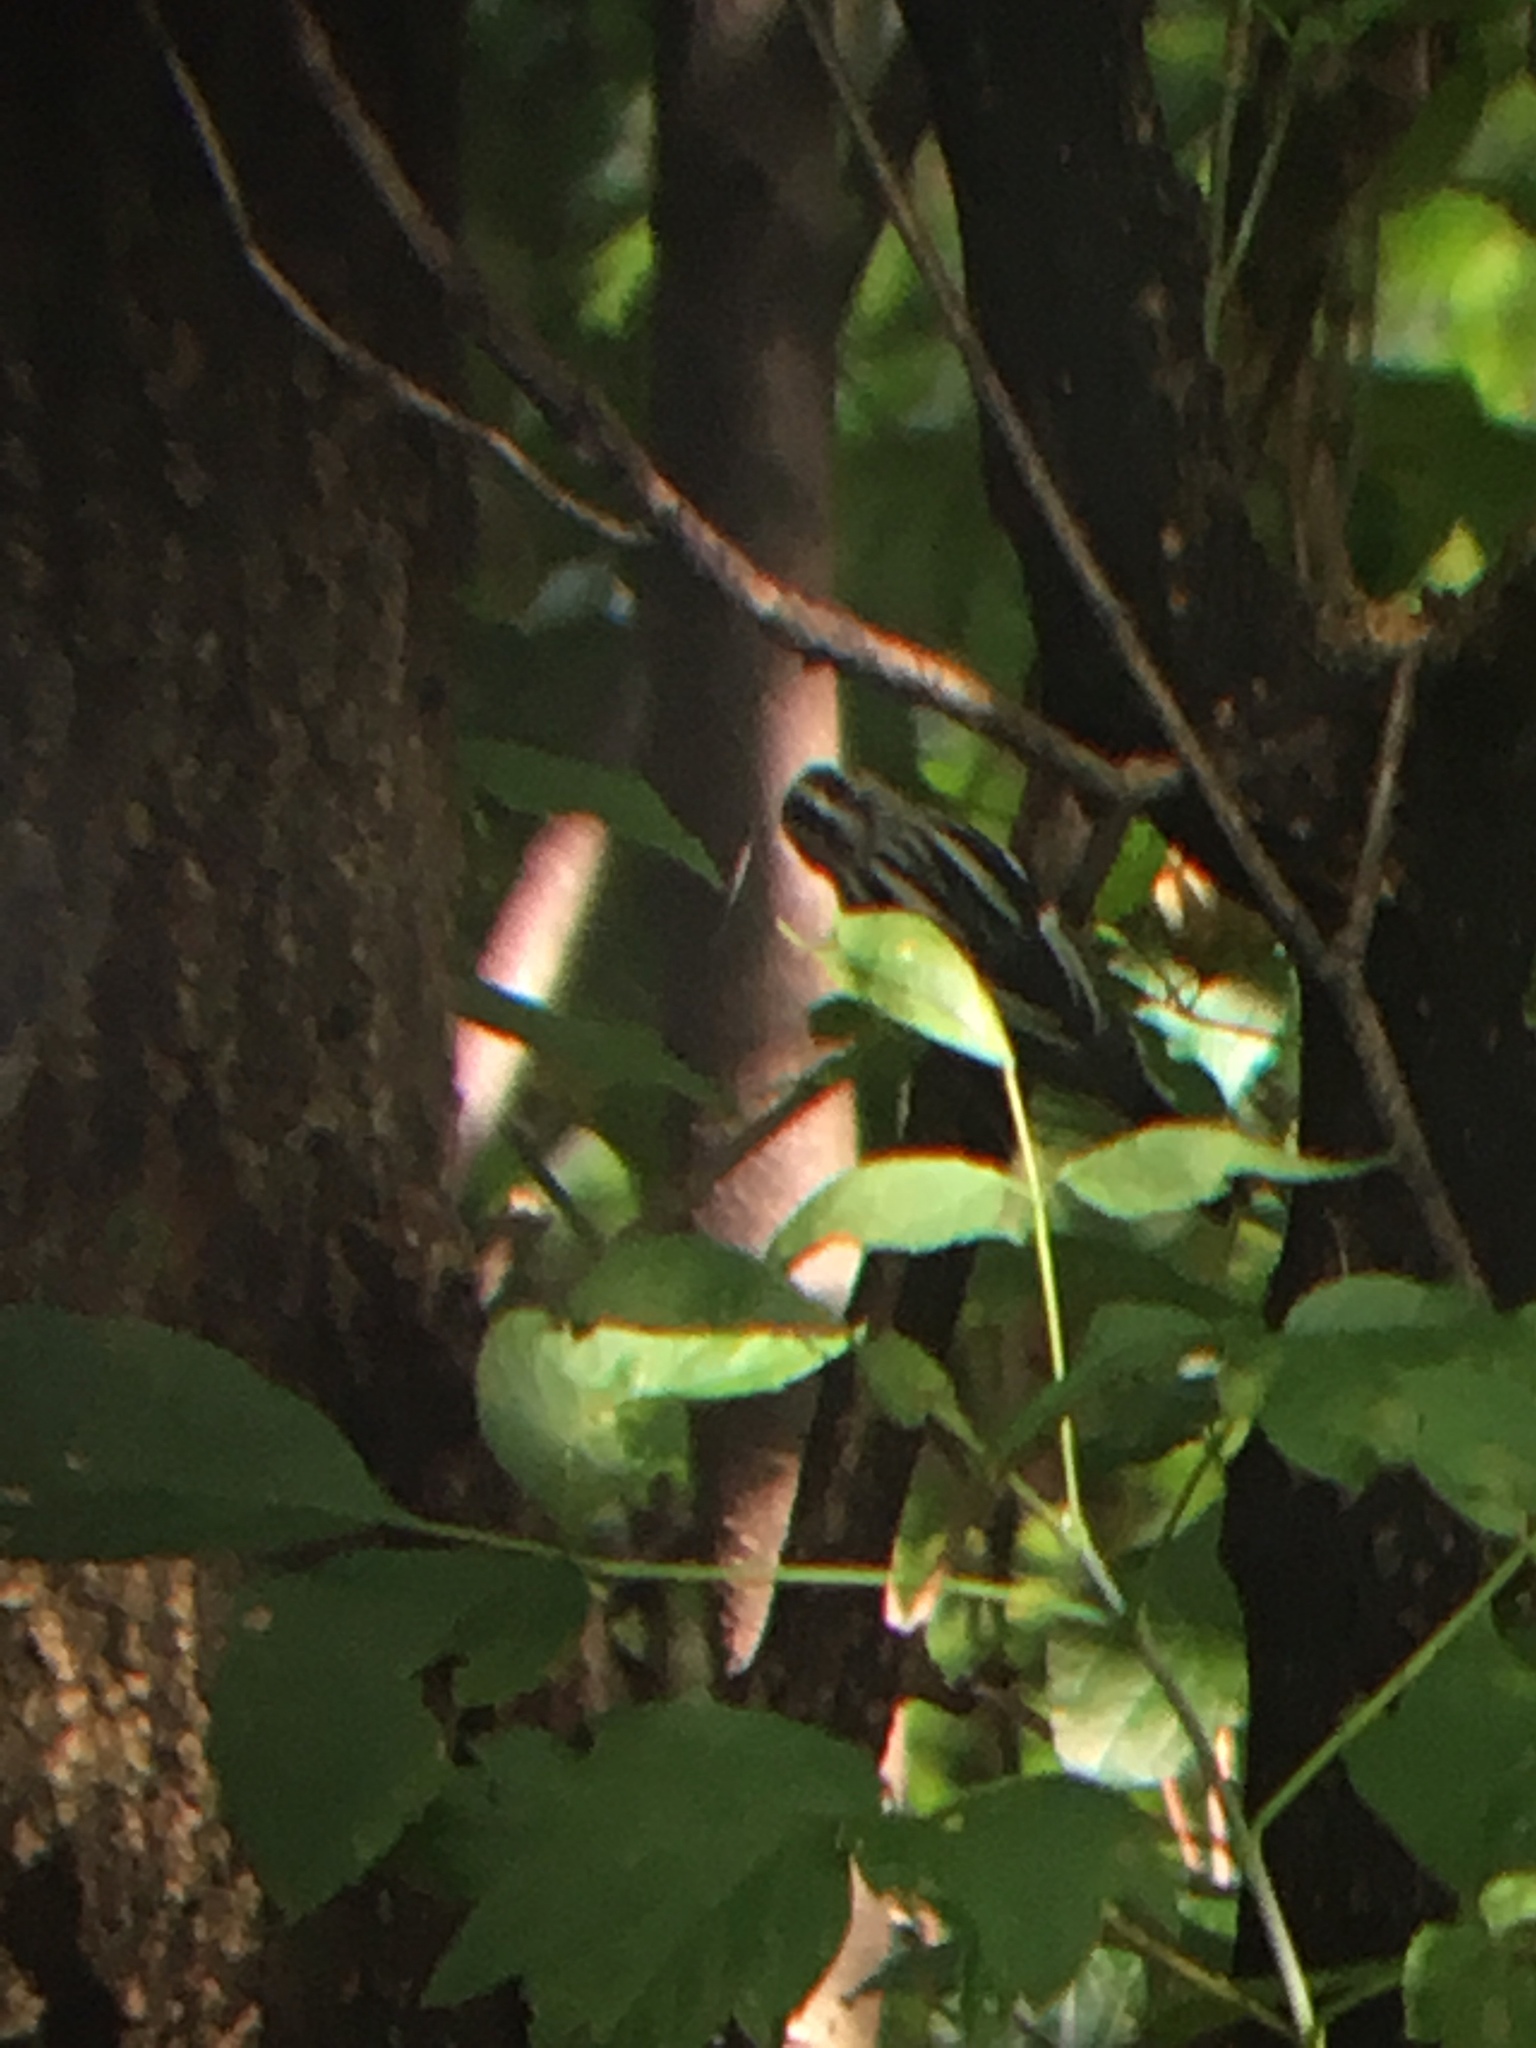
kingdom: Animalia
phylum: Chordata
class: Aves
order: Passeriformes
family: Parulidae
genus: Mniotilta
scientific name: Mniotilta varia
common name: Black-and-white warbler
